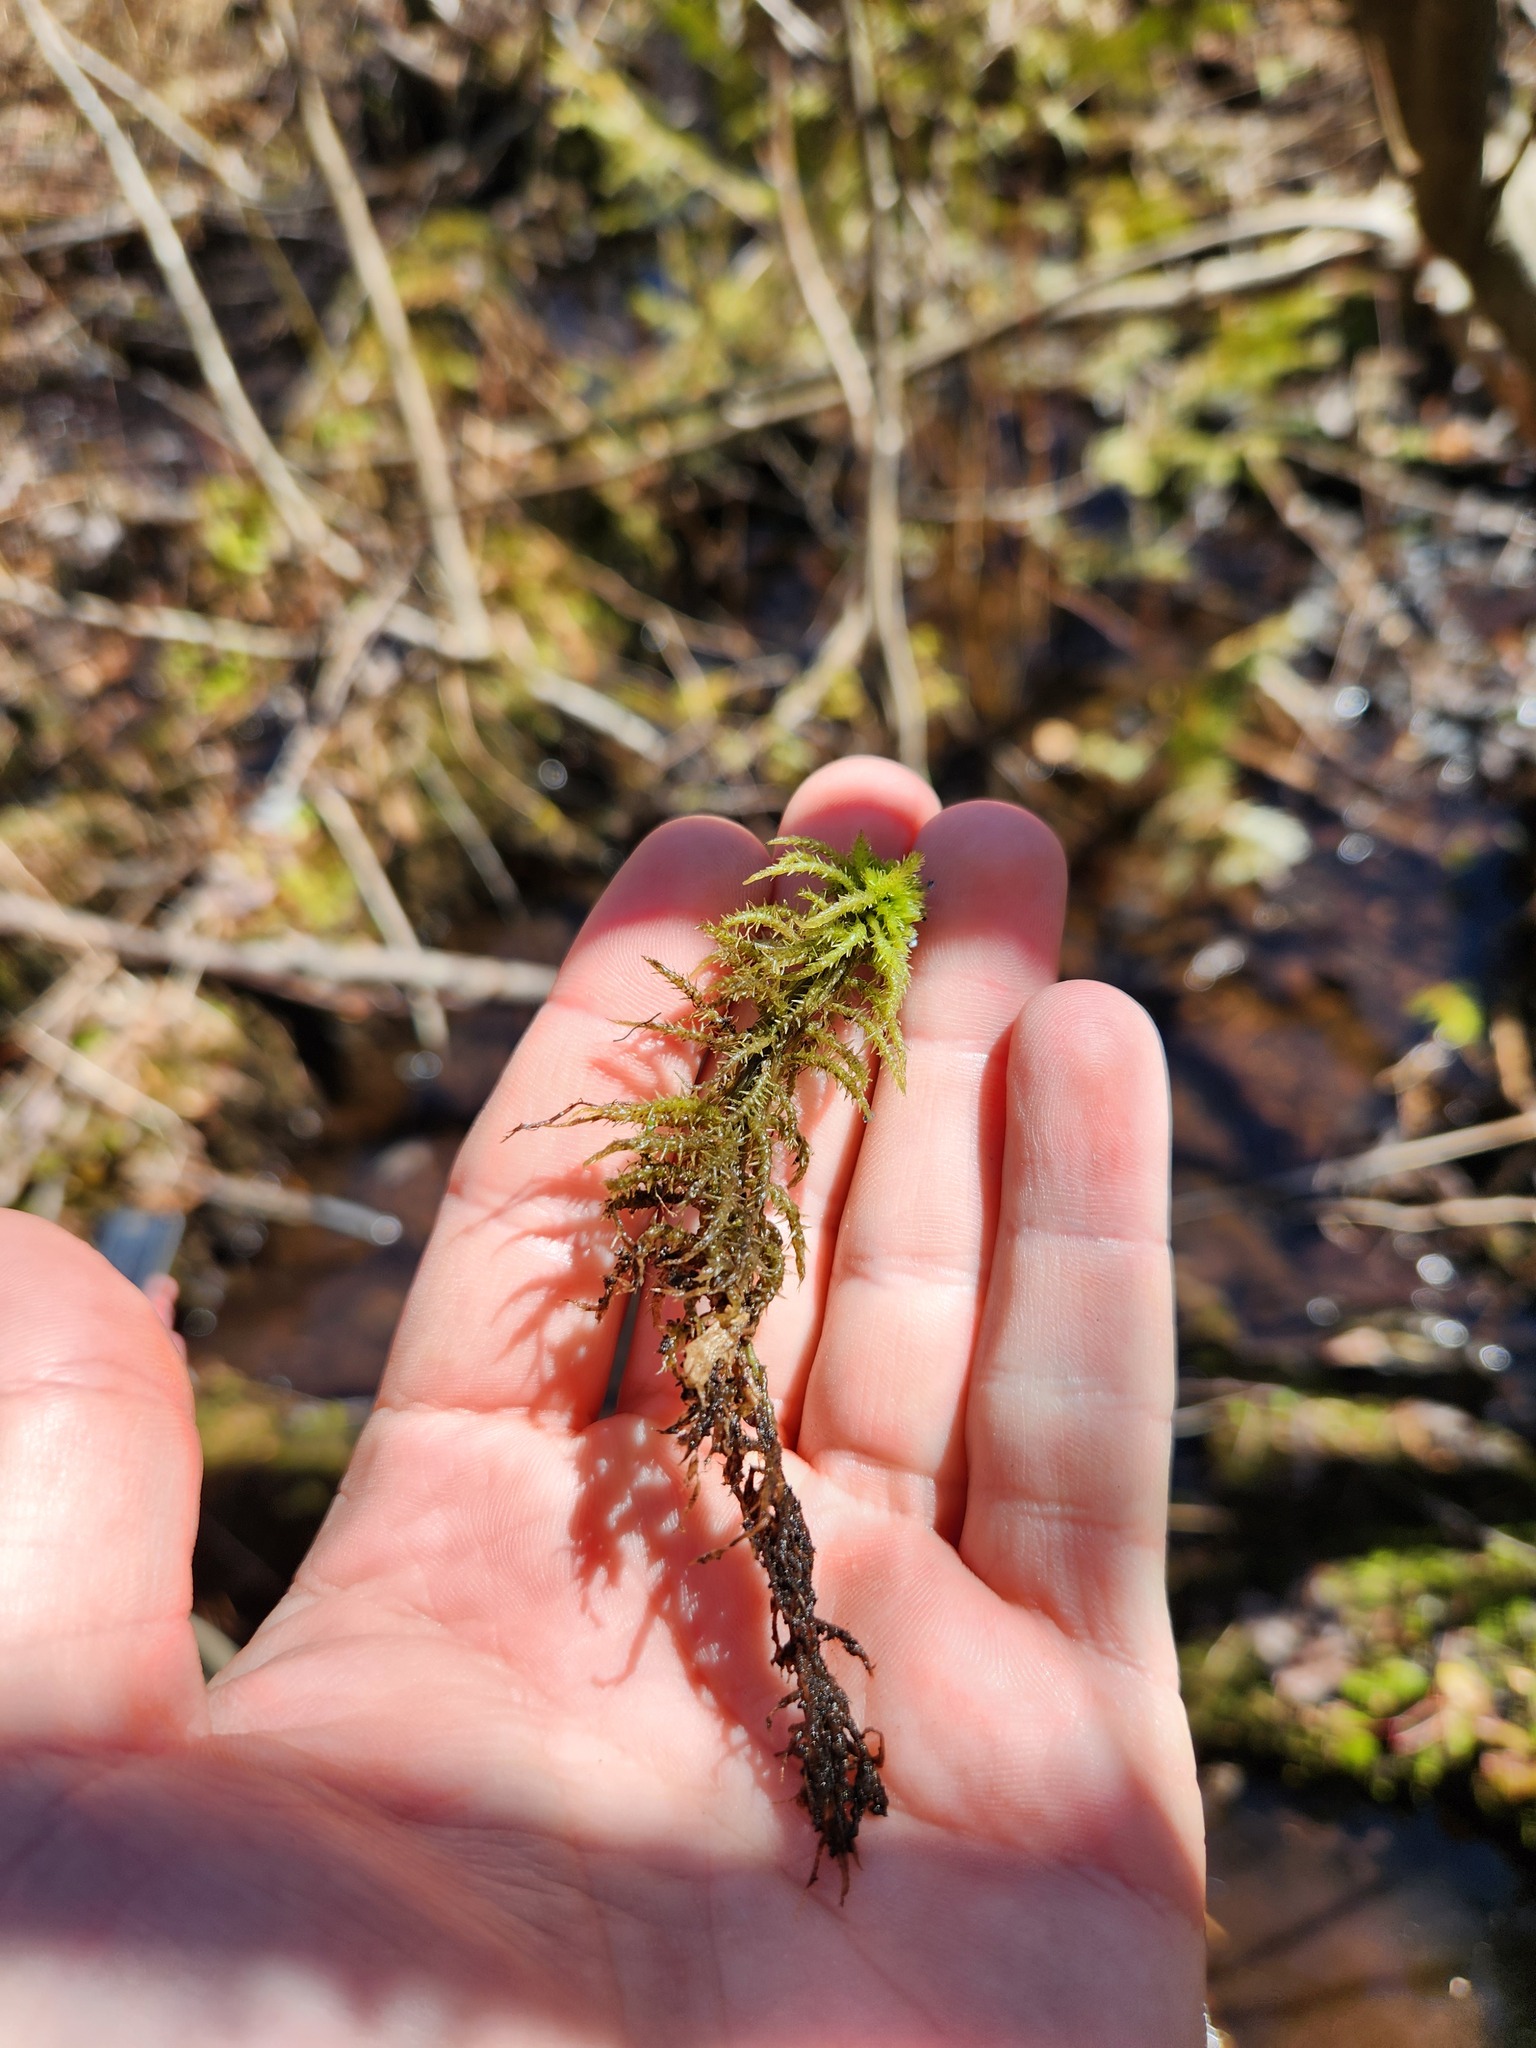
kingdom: Plantae
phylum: Bryophyta
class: Sphagnopsida
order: Sphagnales
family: Sphagnaceae
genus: Sphagnum
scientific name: Sphagnum squarrosum
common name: Shaggy peat moss
